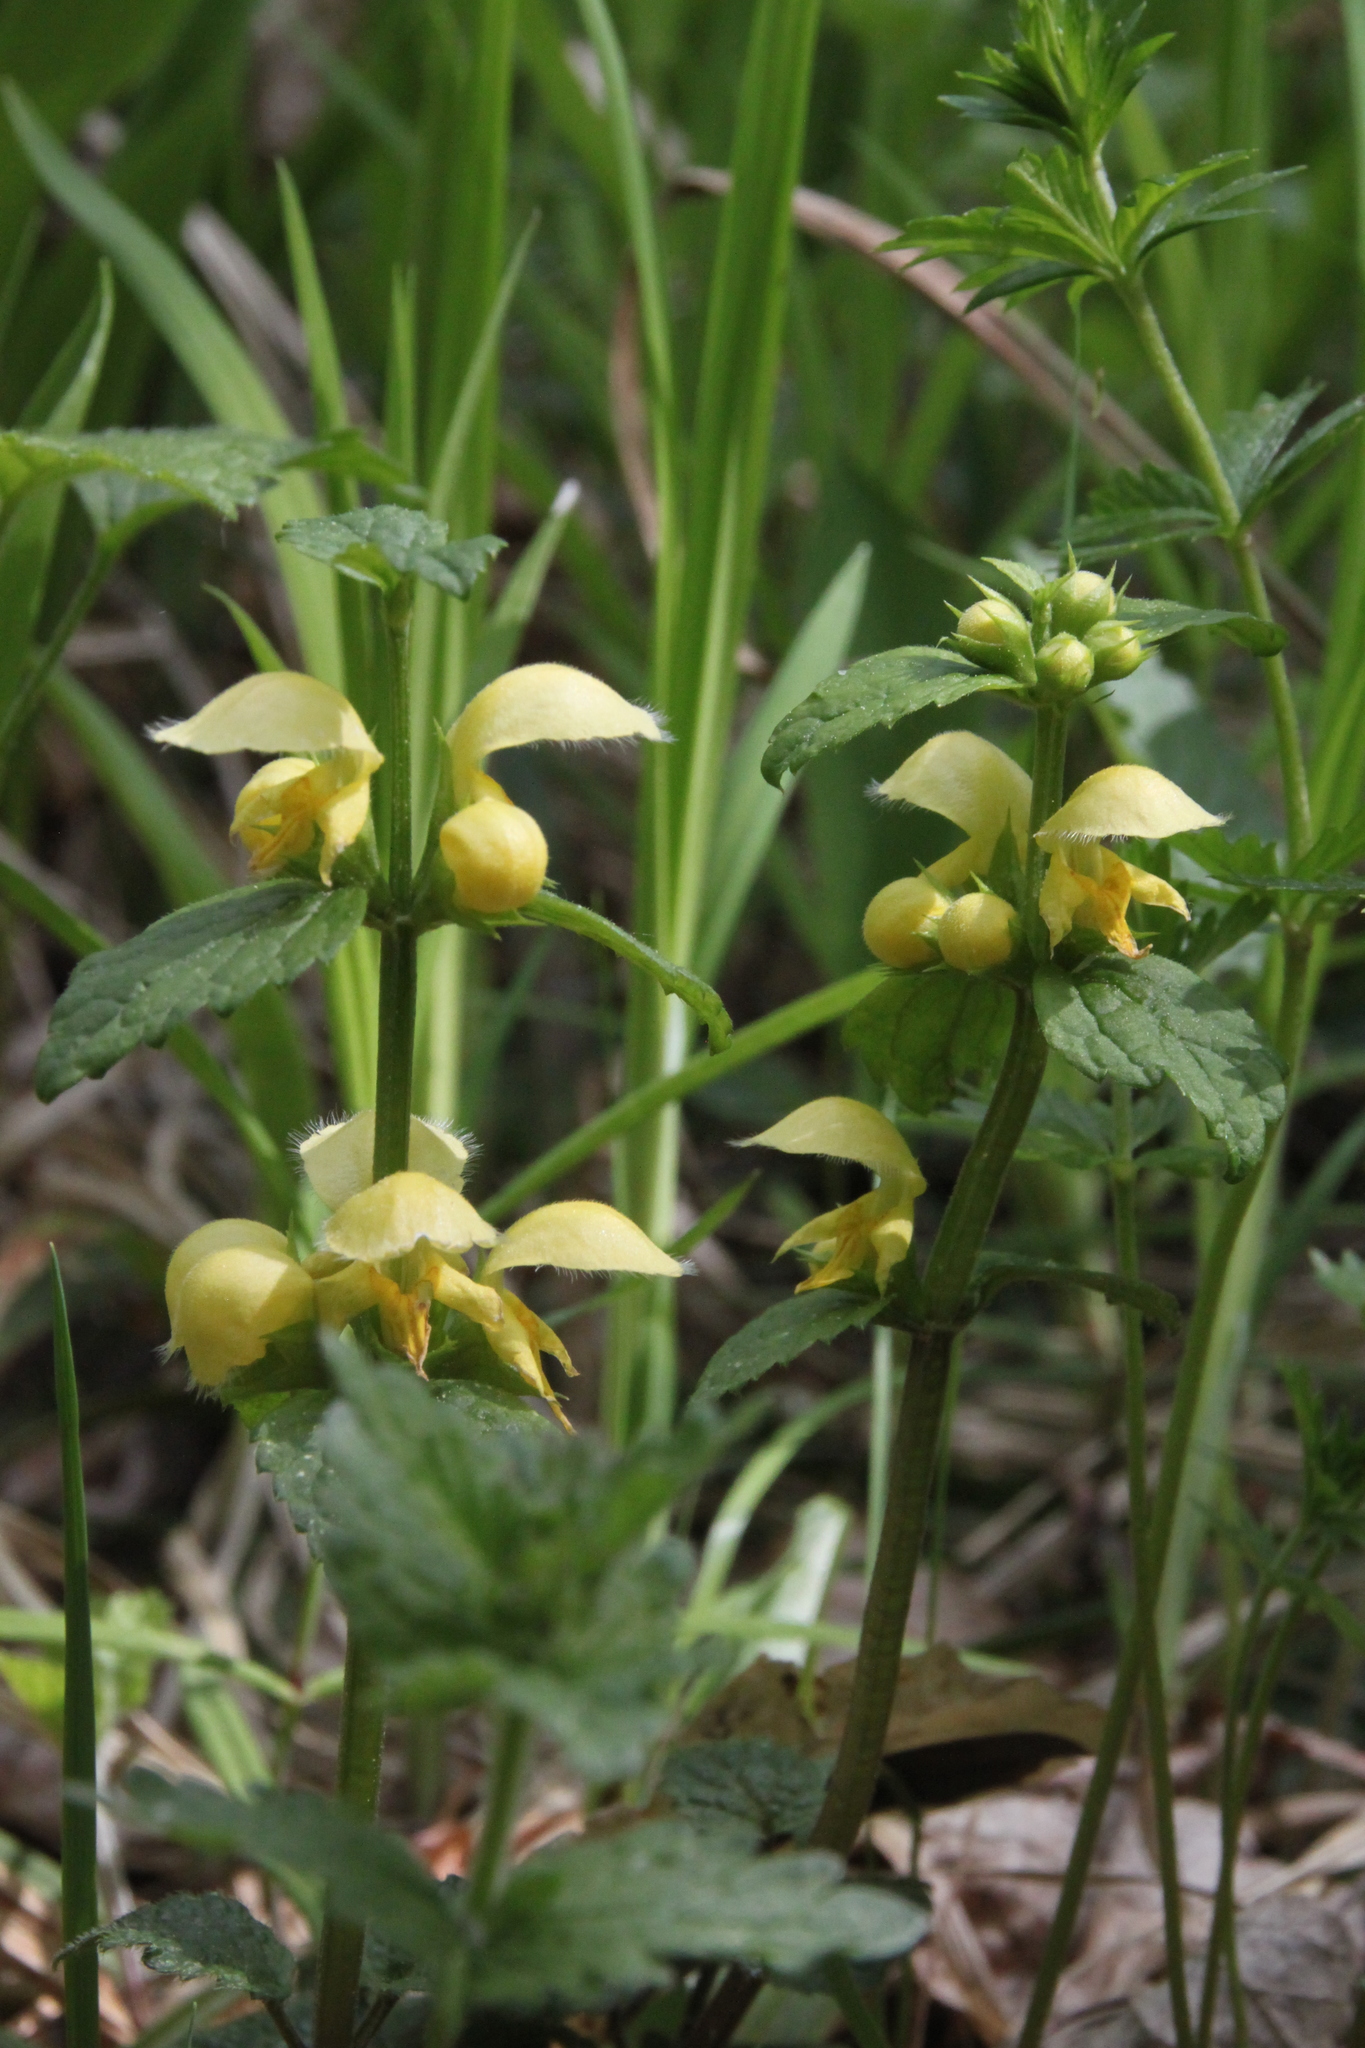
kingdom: Plantae
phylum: Tracheophyta
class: Magnoliopsida
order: Lamiales
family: Lamiaceae
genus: Lamium
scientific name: Lamium galeobdolon
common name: Yellow archangel
